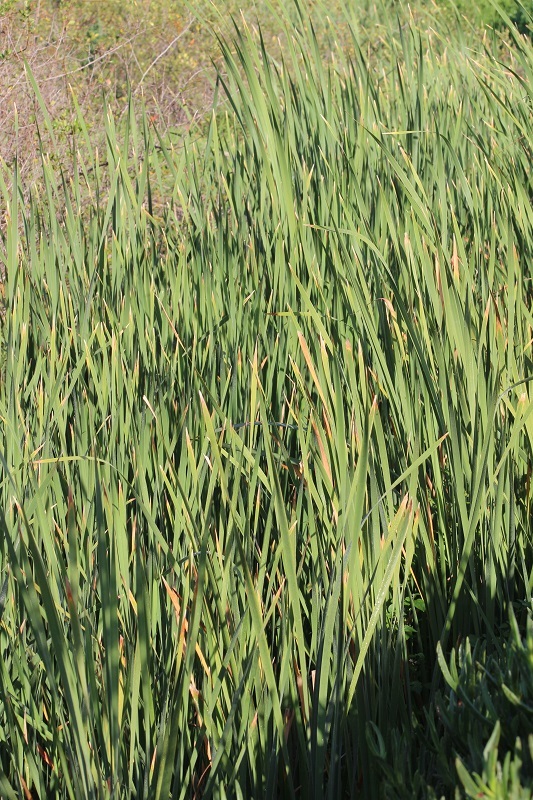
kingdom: Plantae
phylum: Tracheophyta
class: Liliopsida
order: Poales
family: Typhaceae
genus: Typha
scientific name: Typha capensis
